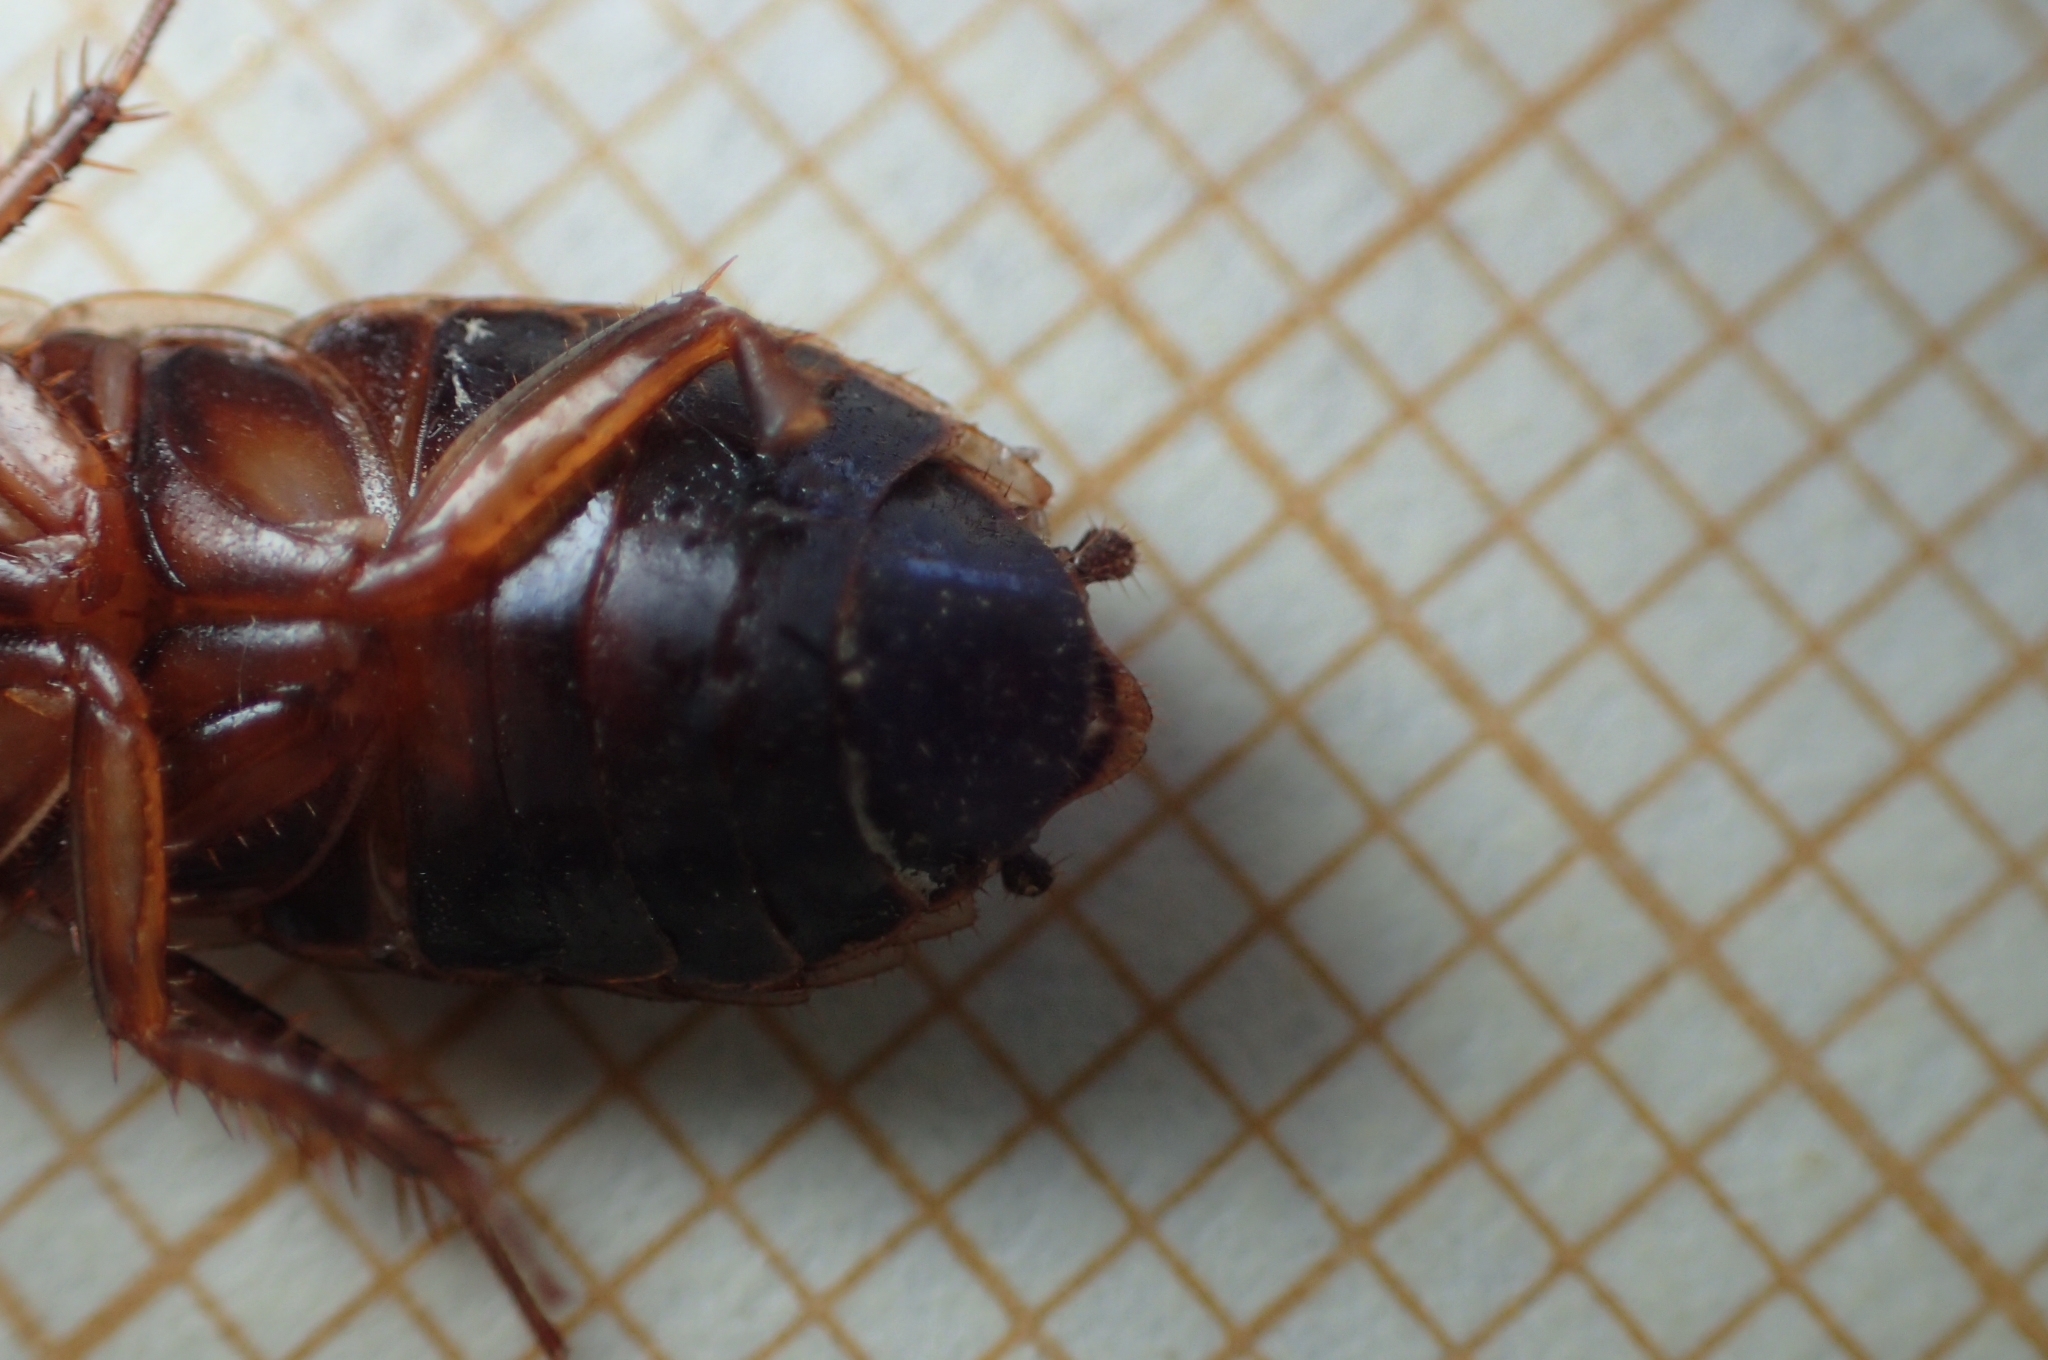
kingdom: Animalia
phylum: Arthropoda
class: Insecta
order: Blattodea
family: Ectobiidae
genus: Loboptera
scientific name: Loboptera decipiens
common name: Lobe-winged cockroach
